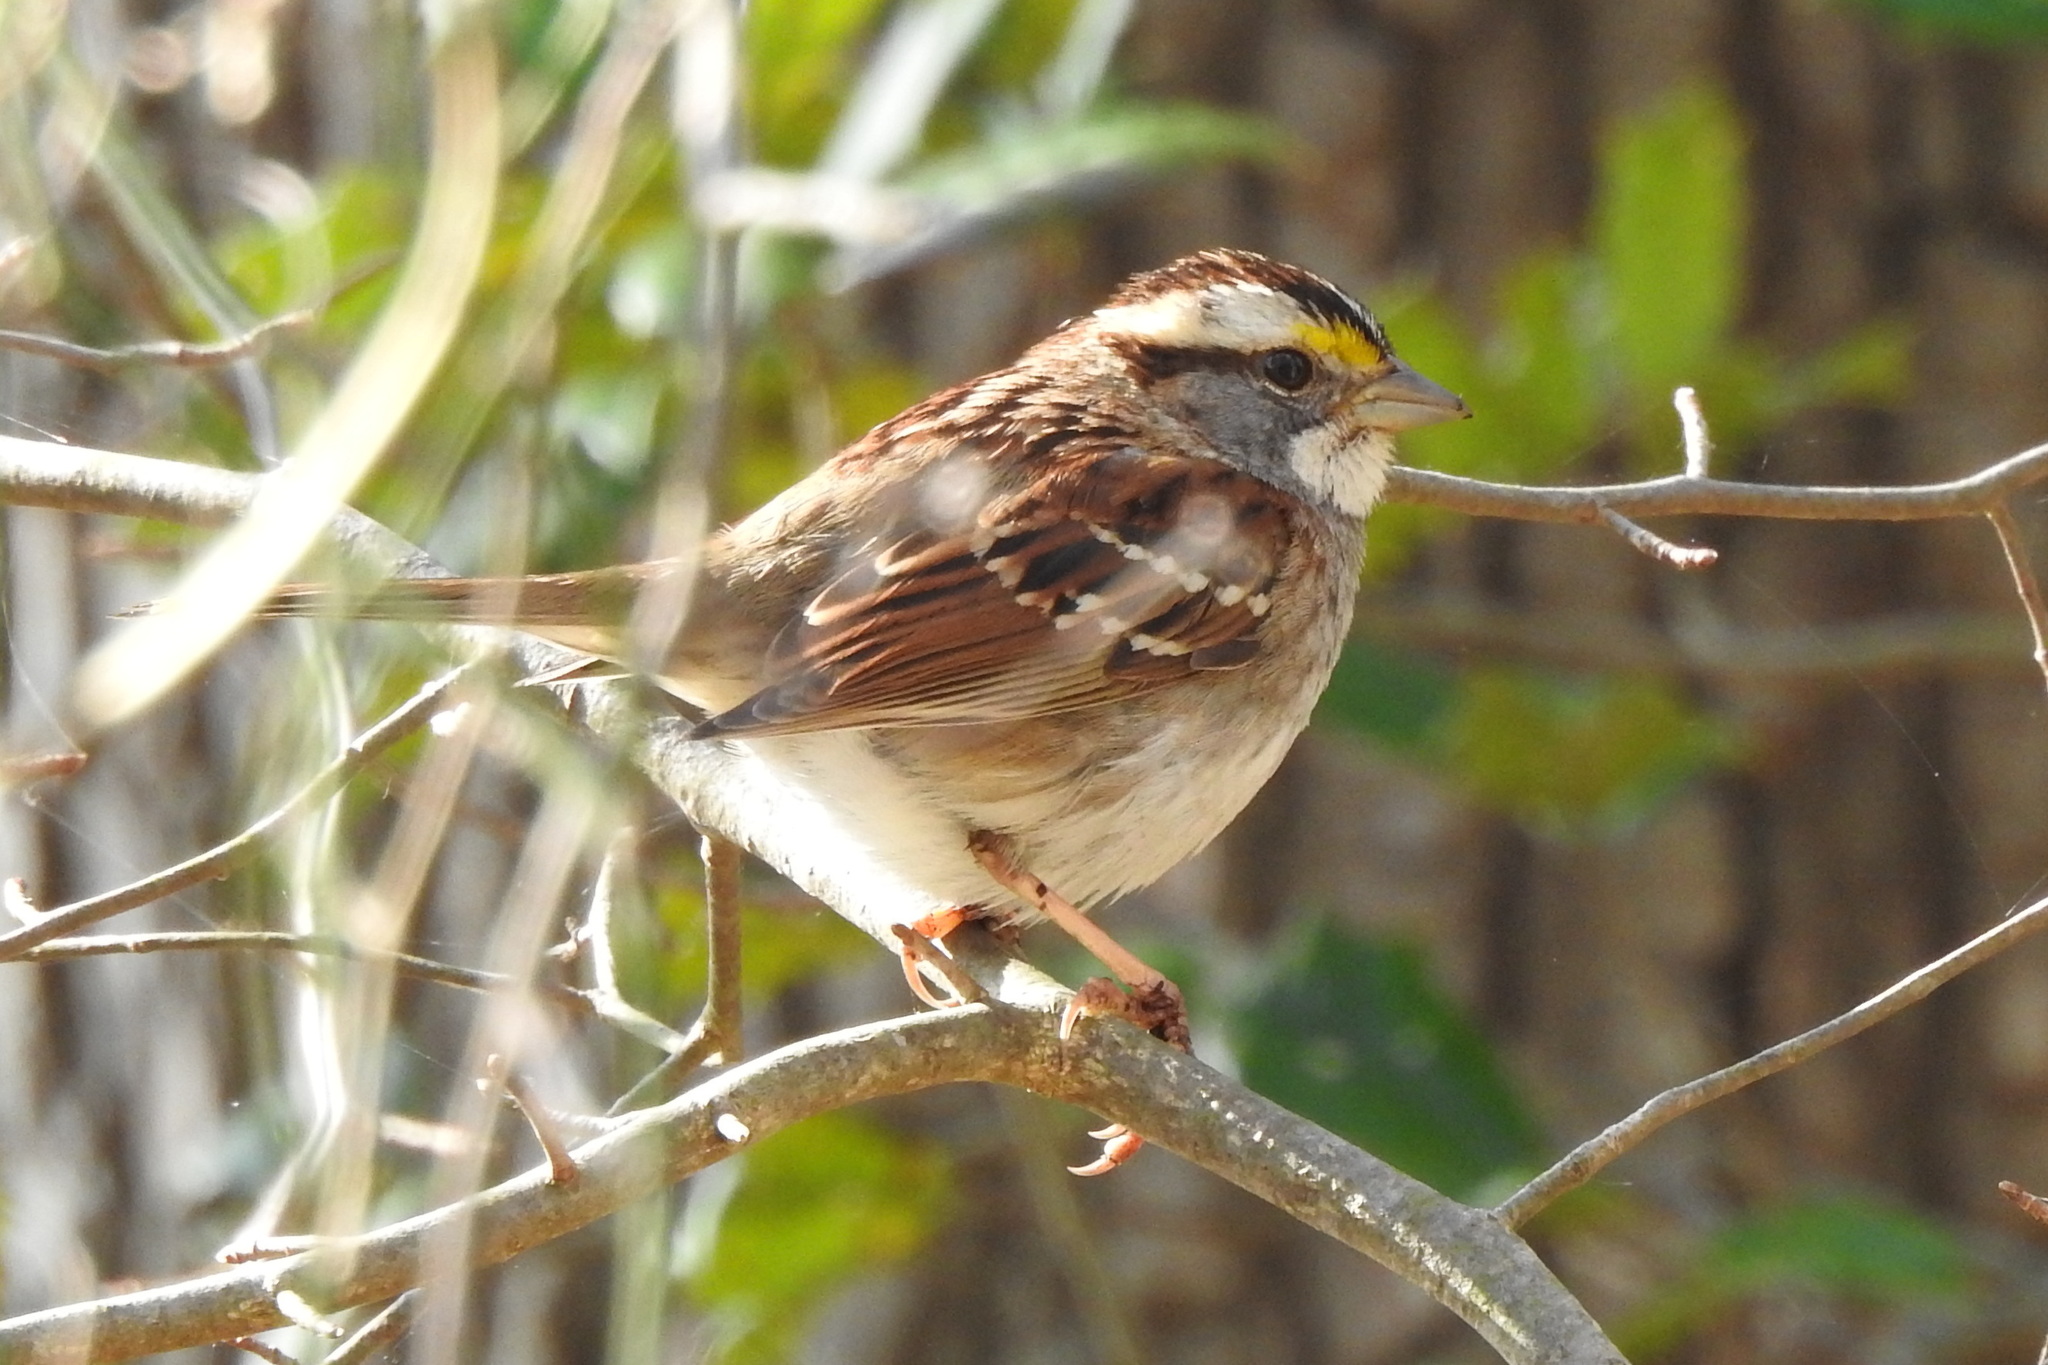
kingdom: Animalia
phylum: Chordata
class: Aves
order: Passeriformes
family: Passerellidae
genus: Zonotrichia
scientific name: Zonotrichia albicollis
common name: White-throated sparrow
